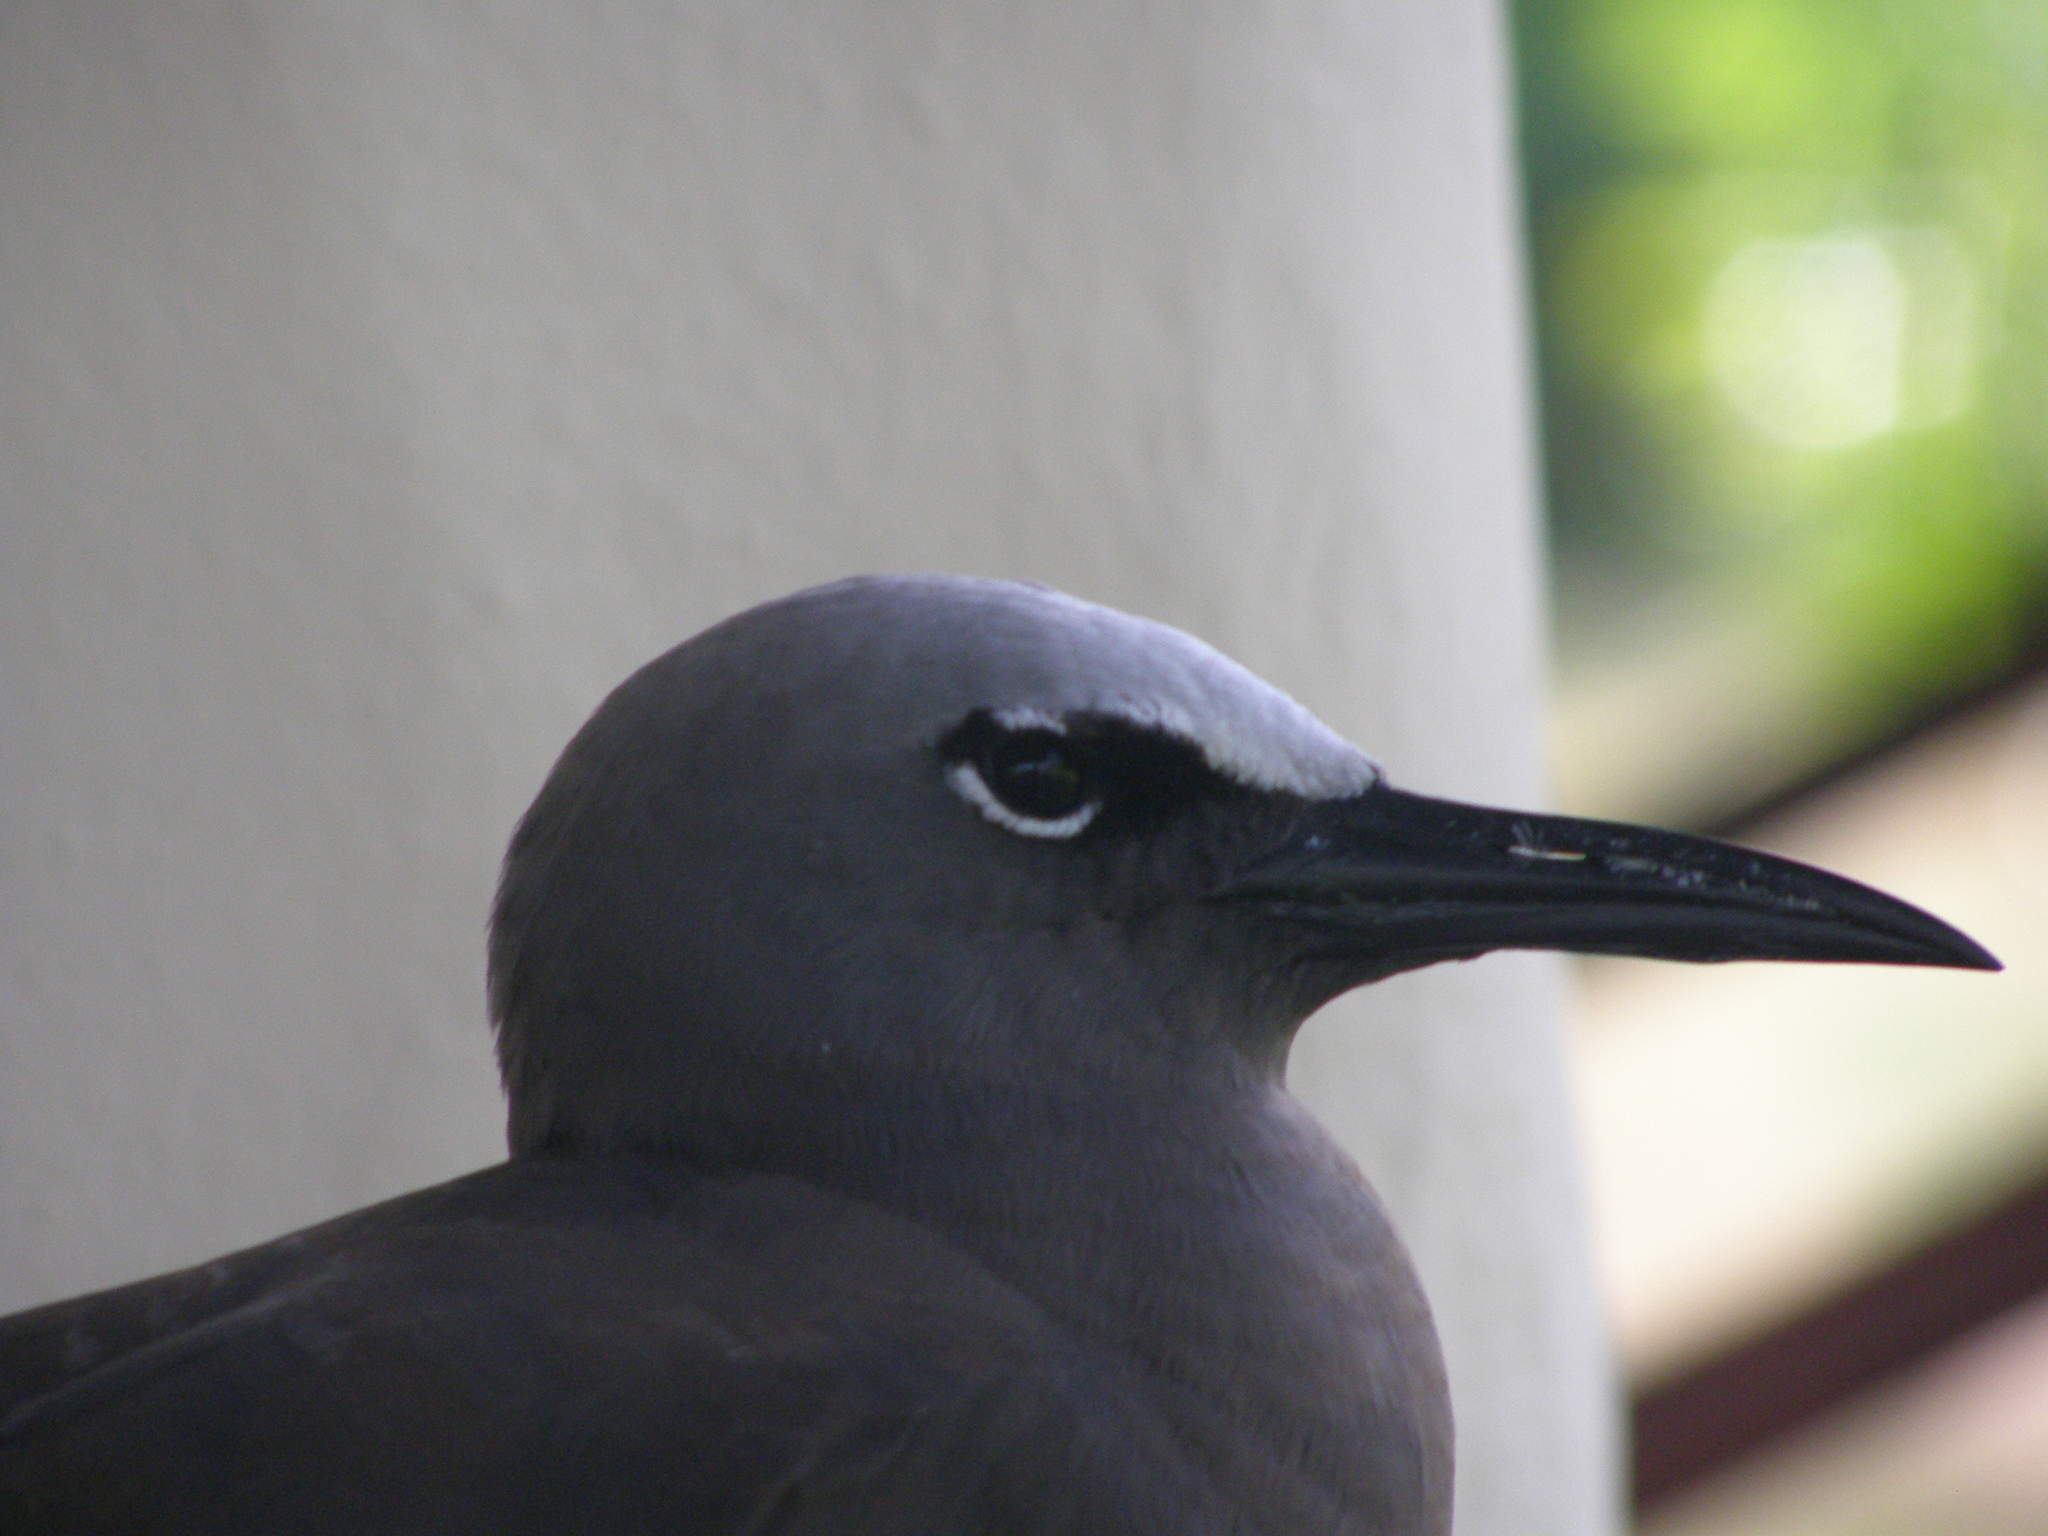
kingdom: Animalia
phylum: Chordata
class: Aves
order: Charadriiformes
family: Laridae
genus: Anous
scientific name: Anous stolidus
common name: Brown noddy
